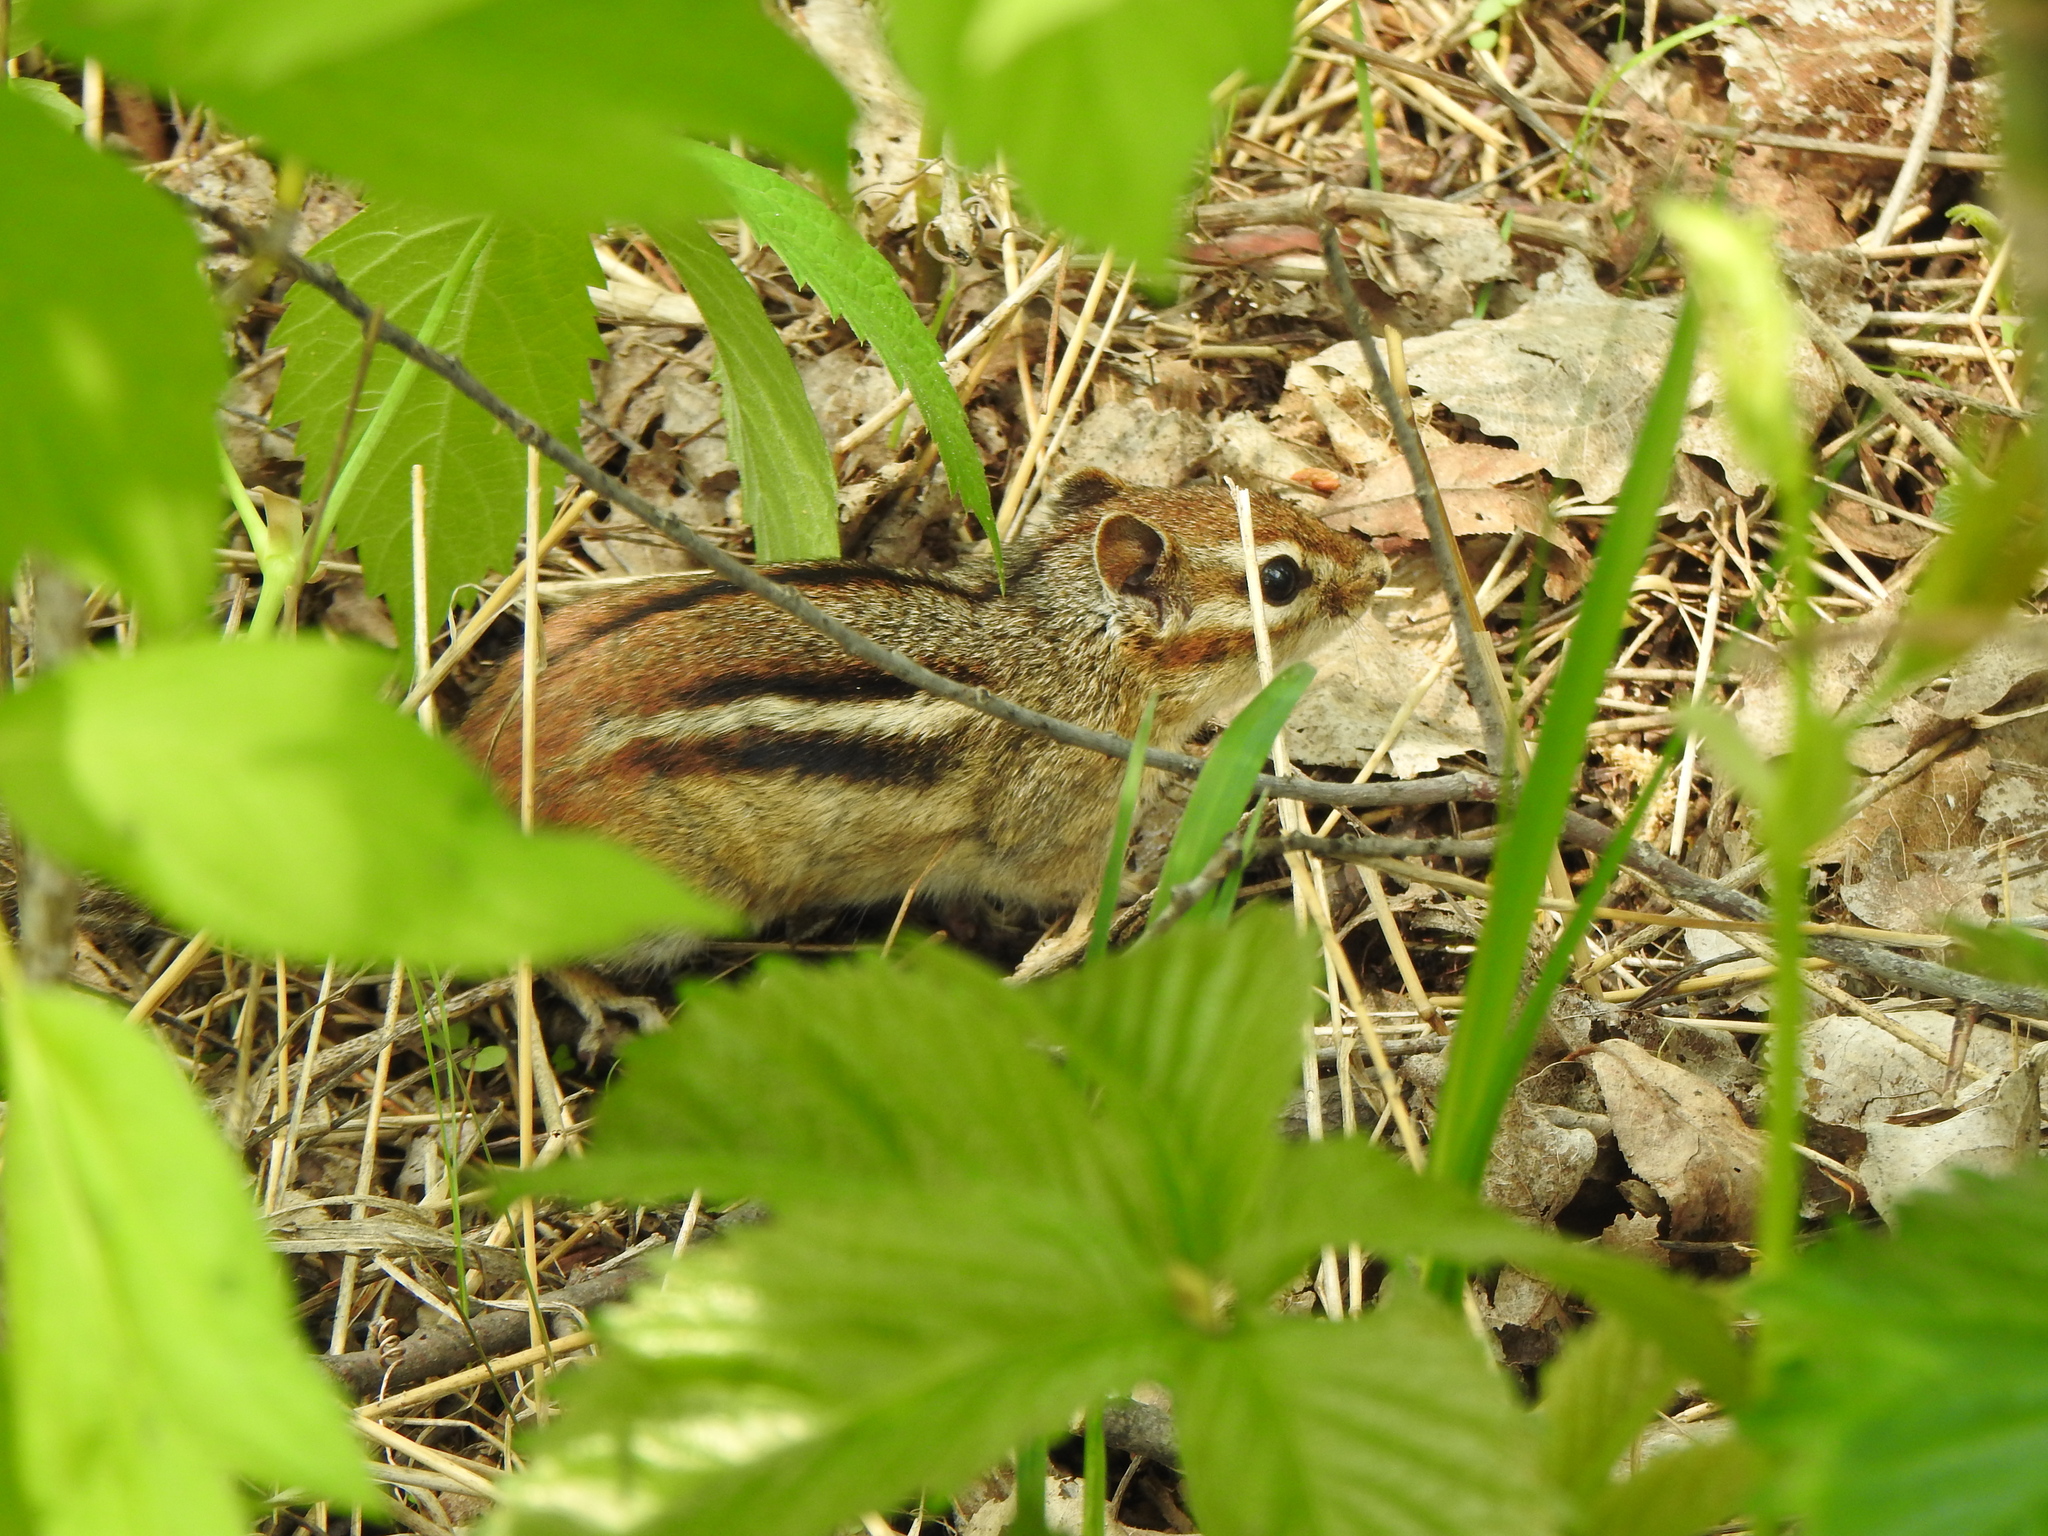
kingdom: Animalia
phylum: Chordata
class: Mammalia
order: Rodentia
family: Sciuridae
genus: Tamias
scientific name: Tamias striatus
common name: Eastern chipmunk
